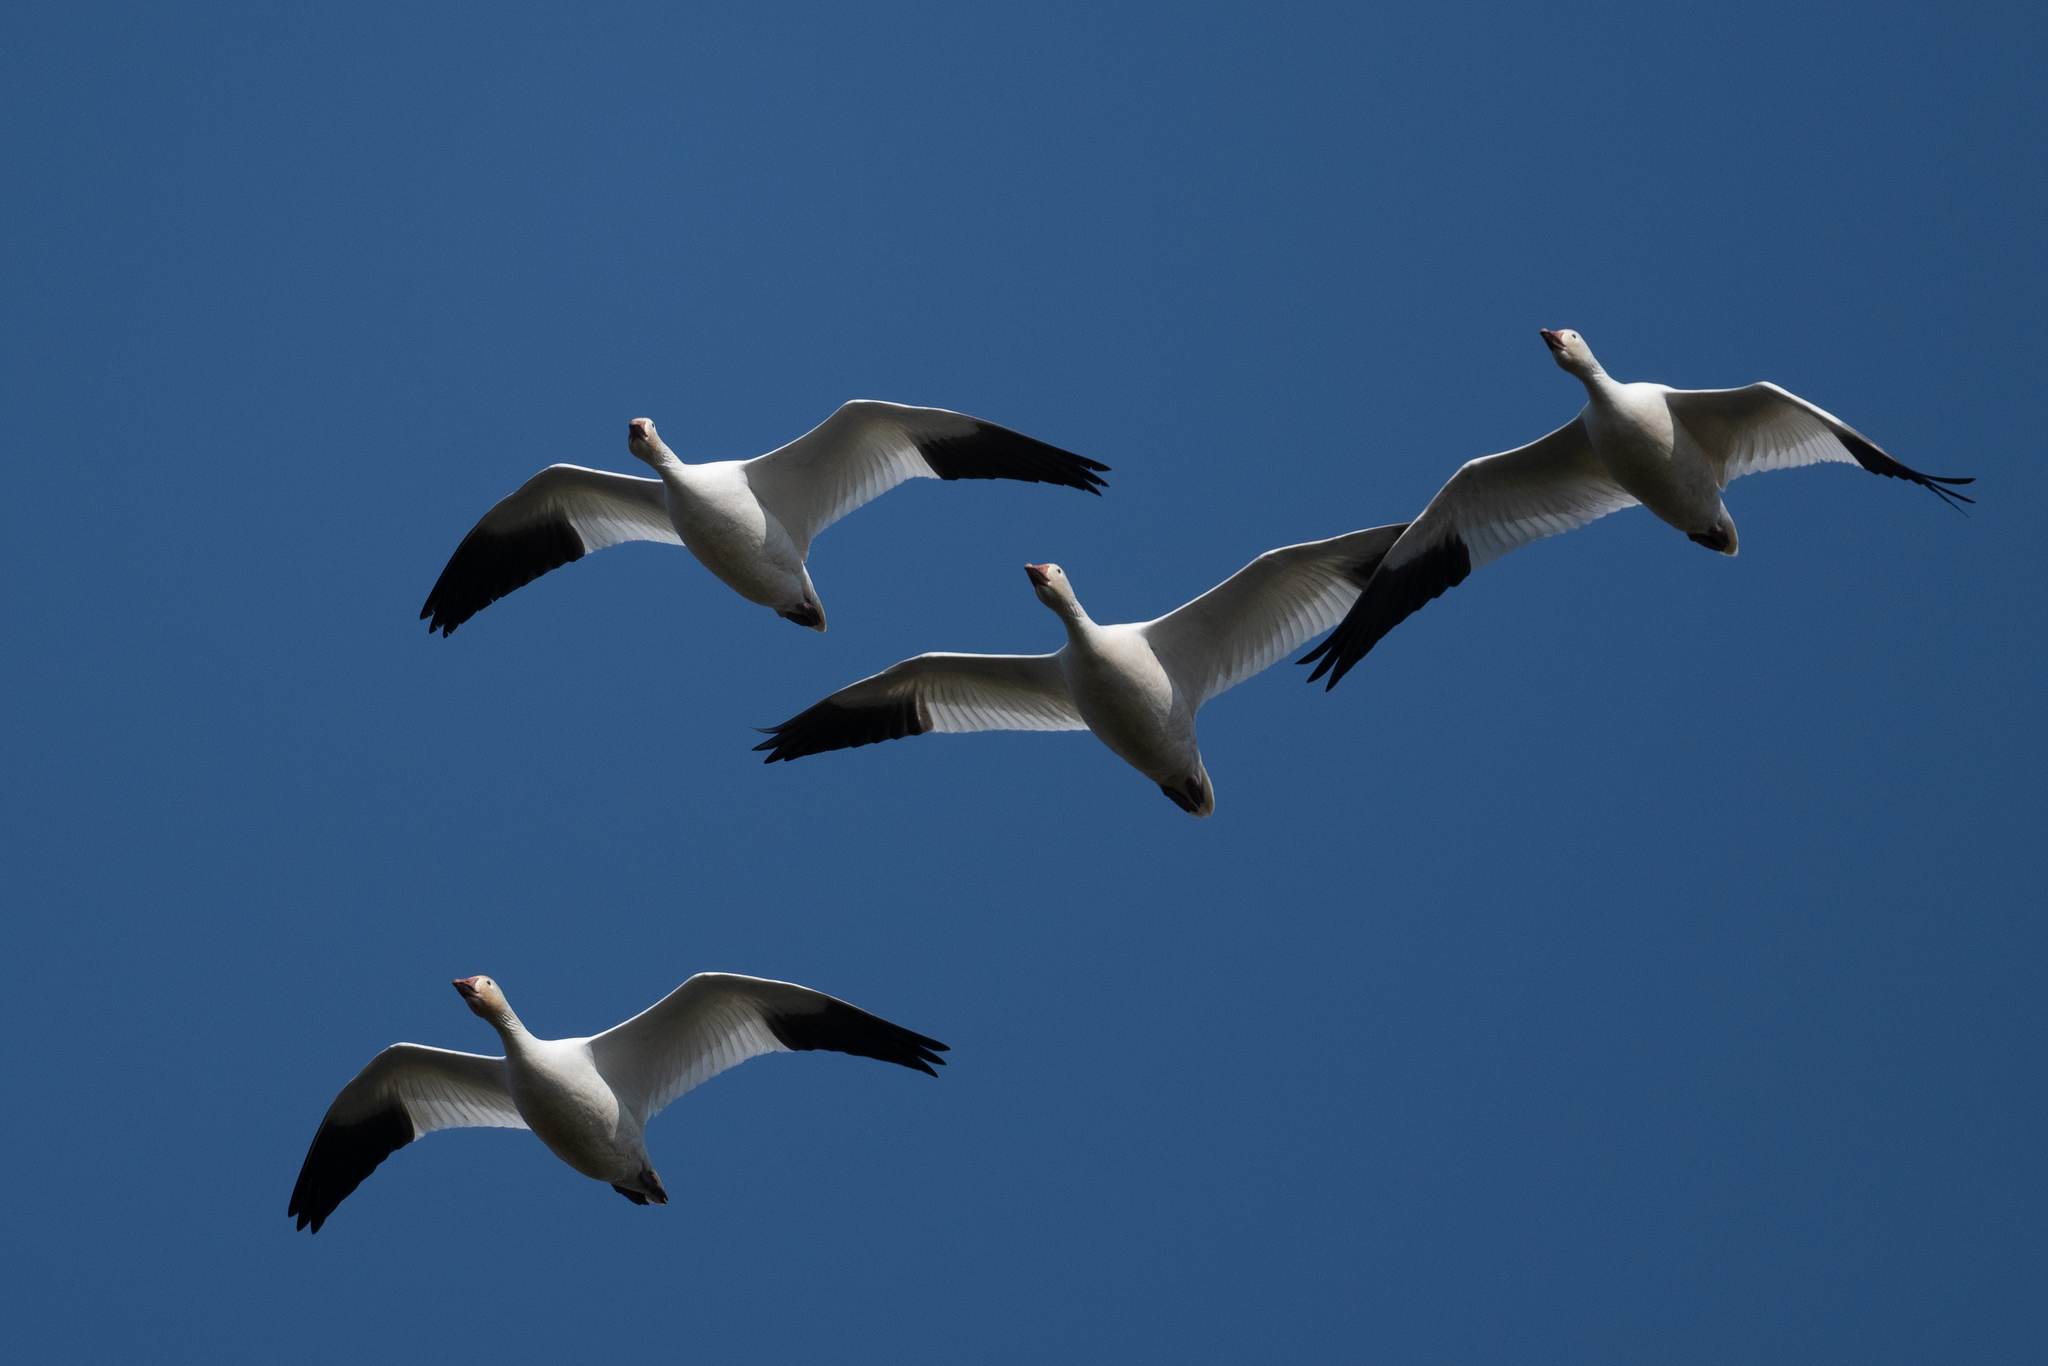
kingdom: Animalia
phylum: Chordata
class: Aves
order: Anseriformes
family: Anatidae
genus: Anser
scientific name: Anser caerulescens
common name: Snow goose
